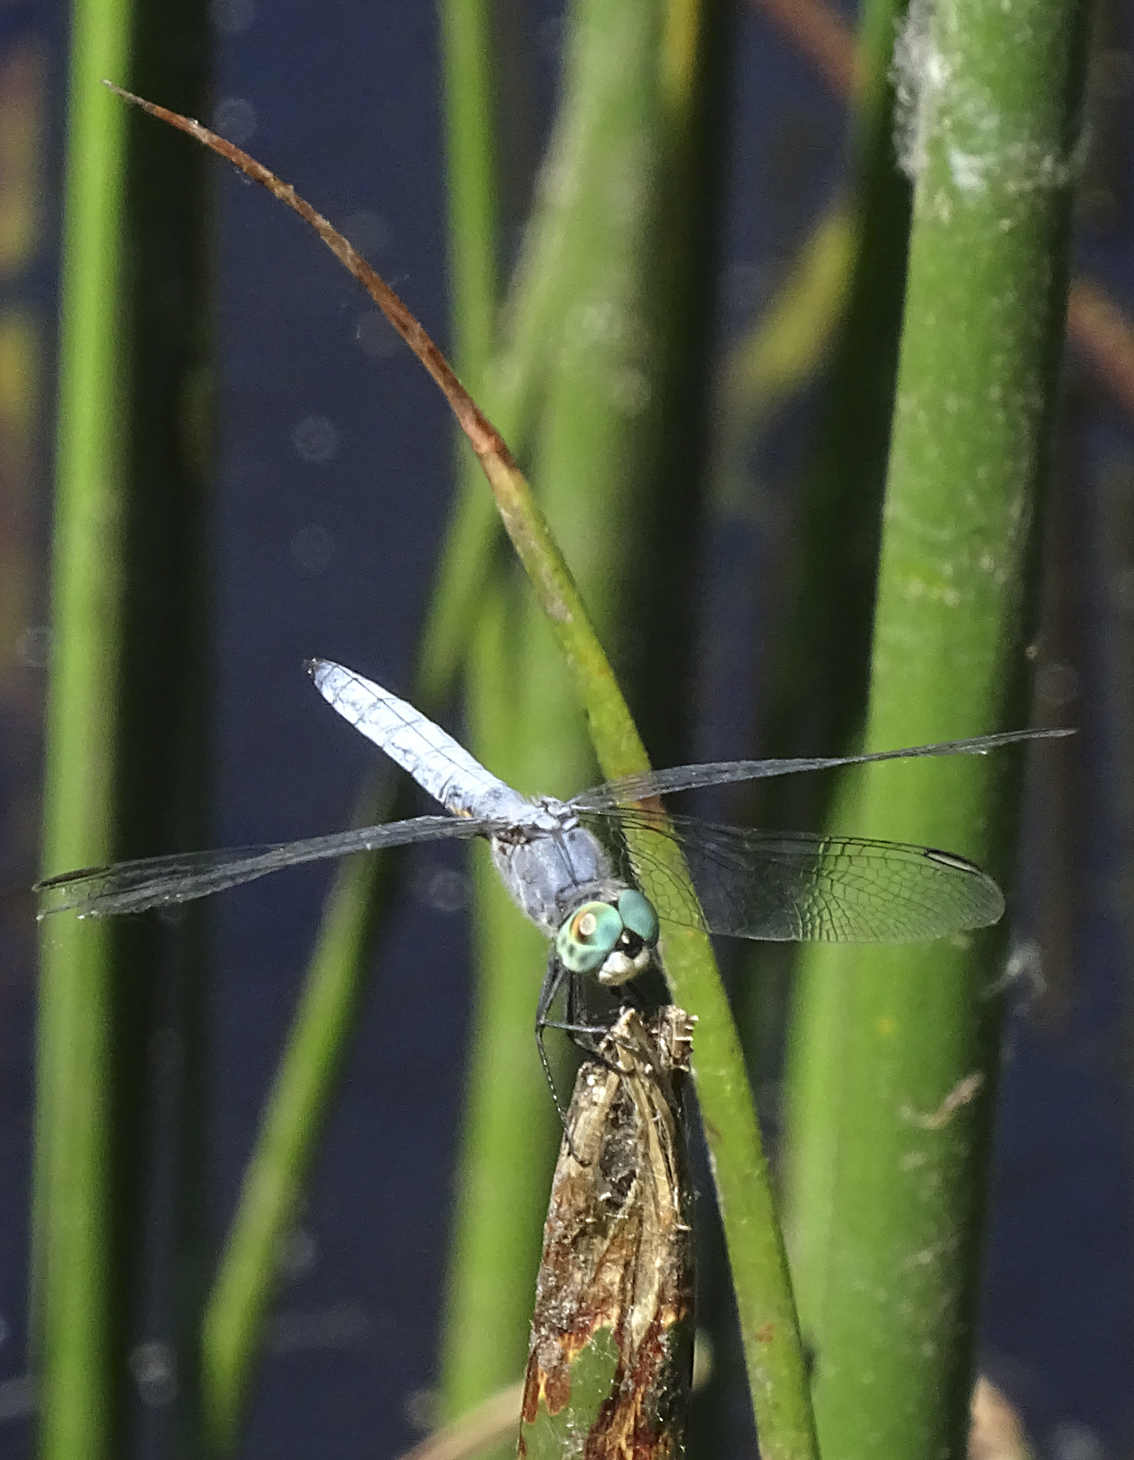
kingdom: Animalia
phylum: Arthropoda
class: Insecta
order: Odonata
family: Libellulidae
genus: Pachydiplax
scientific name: Pachydiplax longipennis
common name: Blue dasher
